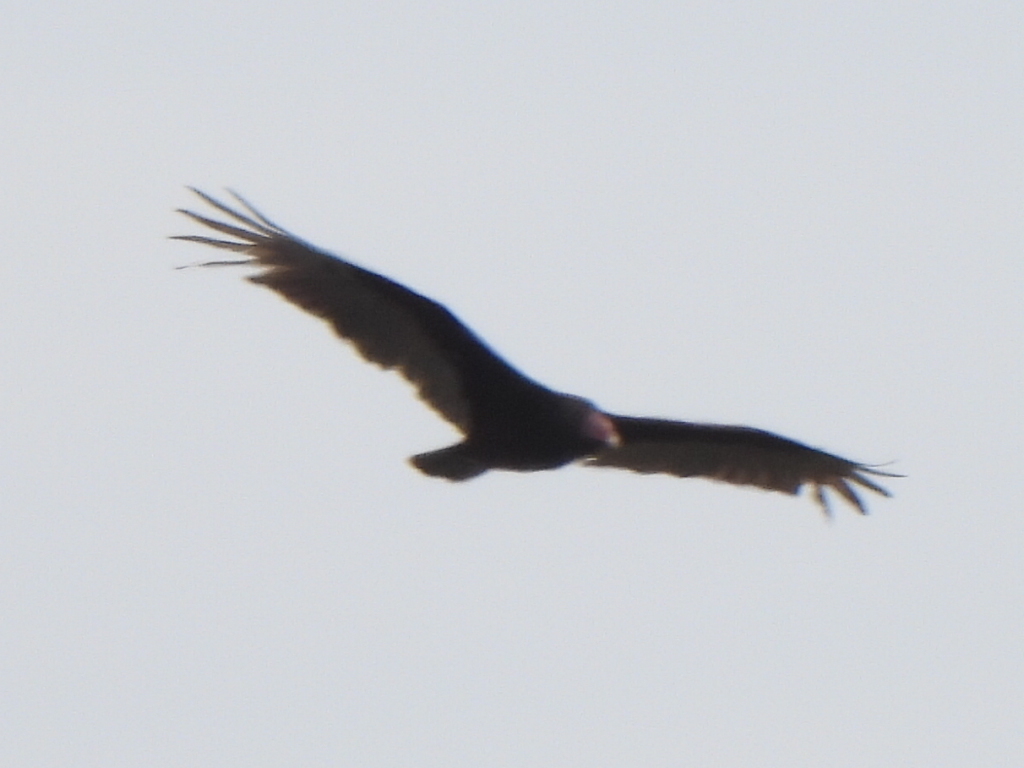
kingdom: Animalia
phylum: Chordata
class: Aves
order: Accipitriformes
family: Cathartidae
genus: Cathartes
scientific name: Cathartes aura
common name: Turkey vulture
